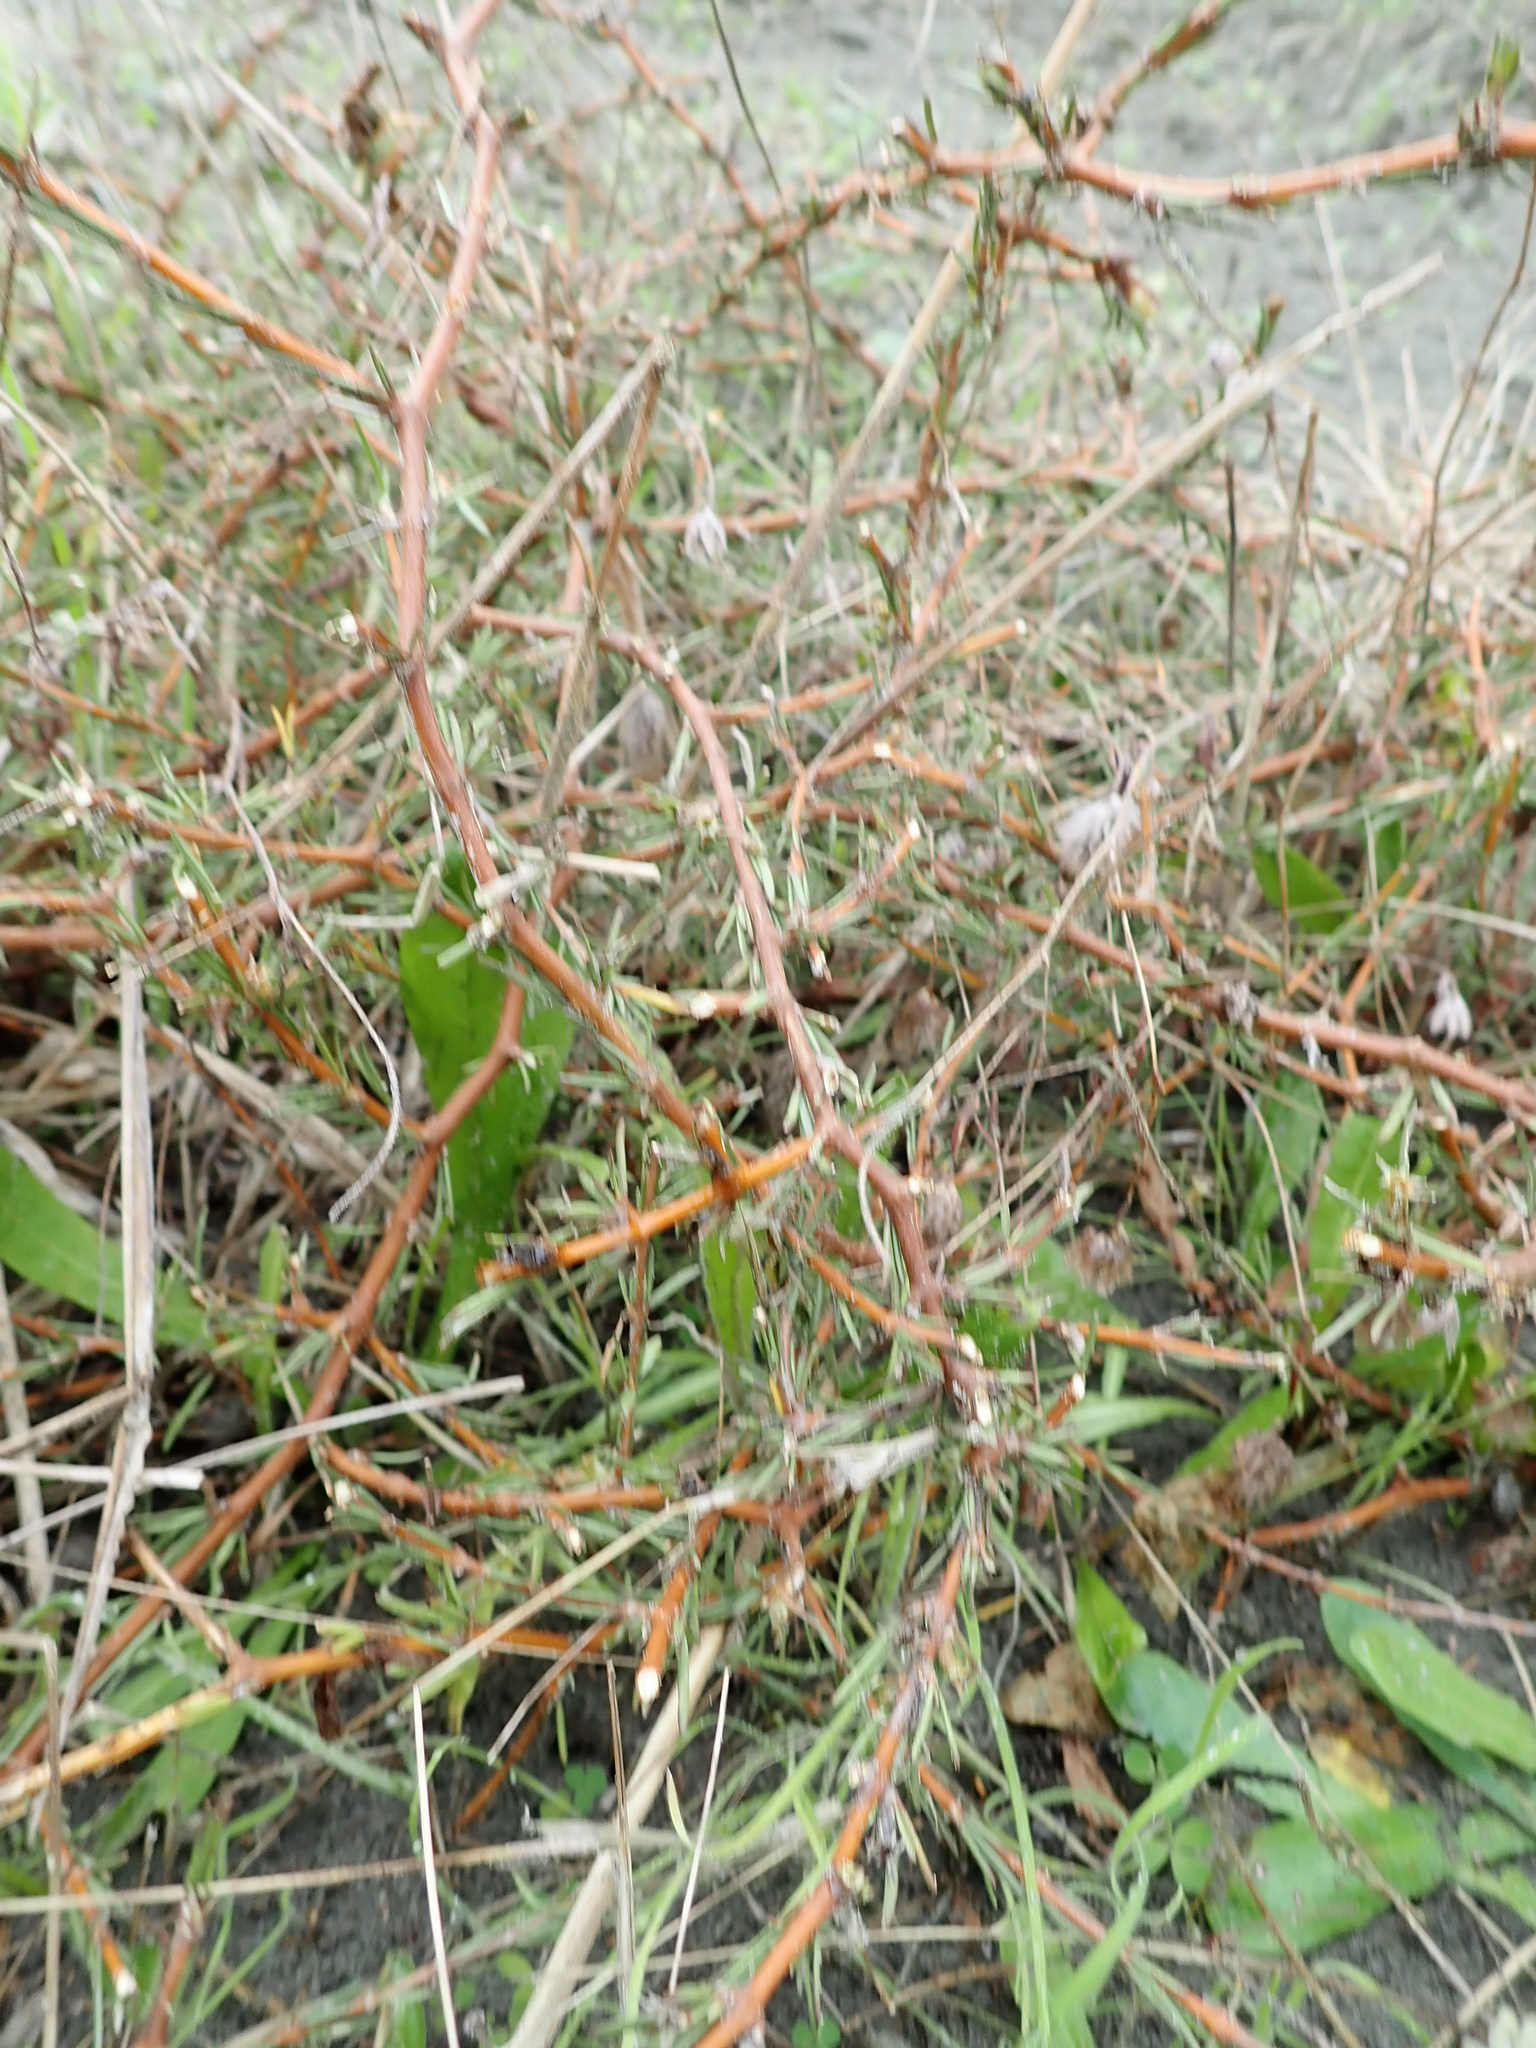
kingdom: Plantae
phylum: Tracheophyta
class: Magnoliopsida
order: Gentianales
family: Rubiaceae
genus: Coprosma
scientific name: Coprosma acerosa
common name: Sand coprosma
